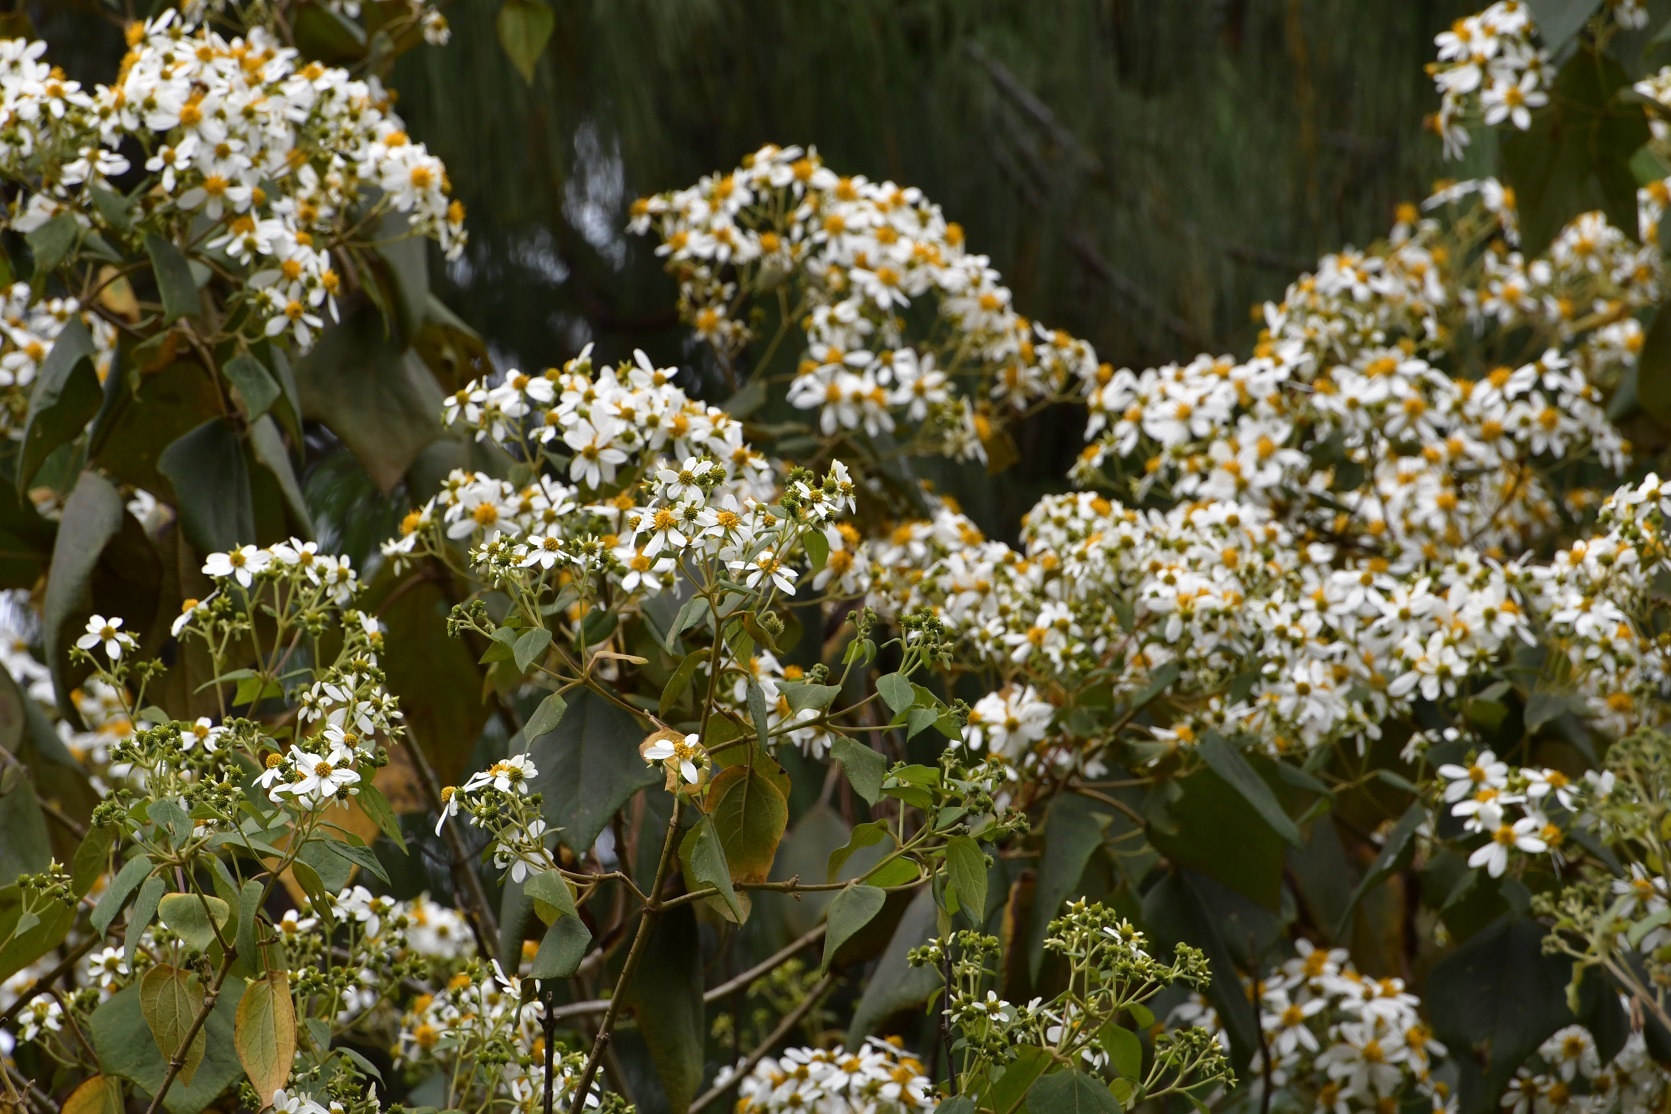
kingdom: Plantae
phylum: Tracheophyta
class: Magnoliopsida
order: Asterales
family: Asteraceae
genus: Montanoa
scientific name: Montanoa leucantha
